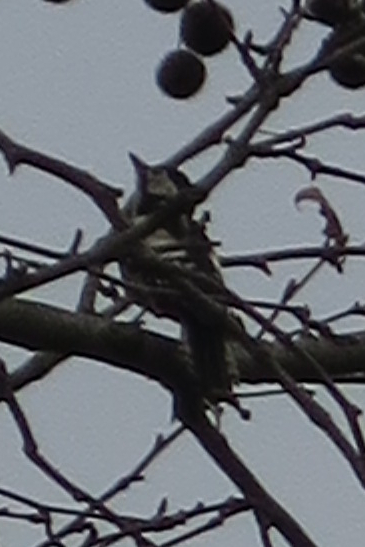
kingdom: Animalia
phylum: Chordata
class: Aves
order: Piciformes
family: Picidae
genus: Dendrocopos
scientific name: Dendrocopos major
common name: Great spotted woodpecker
